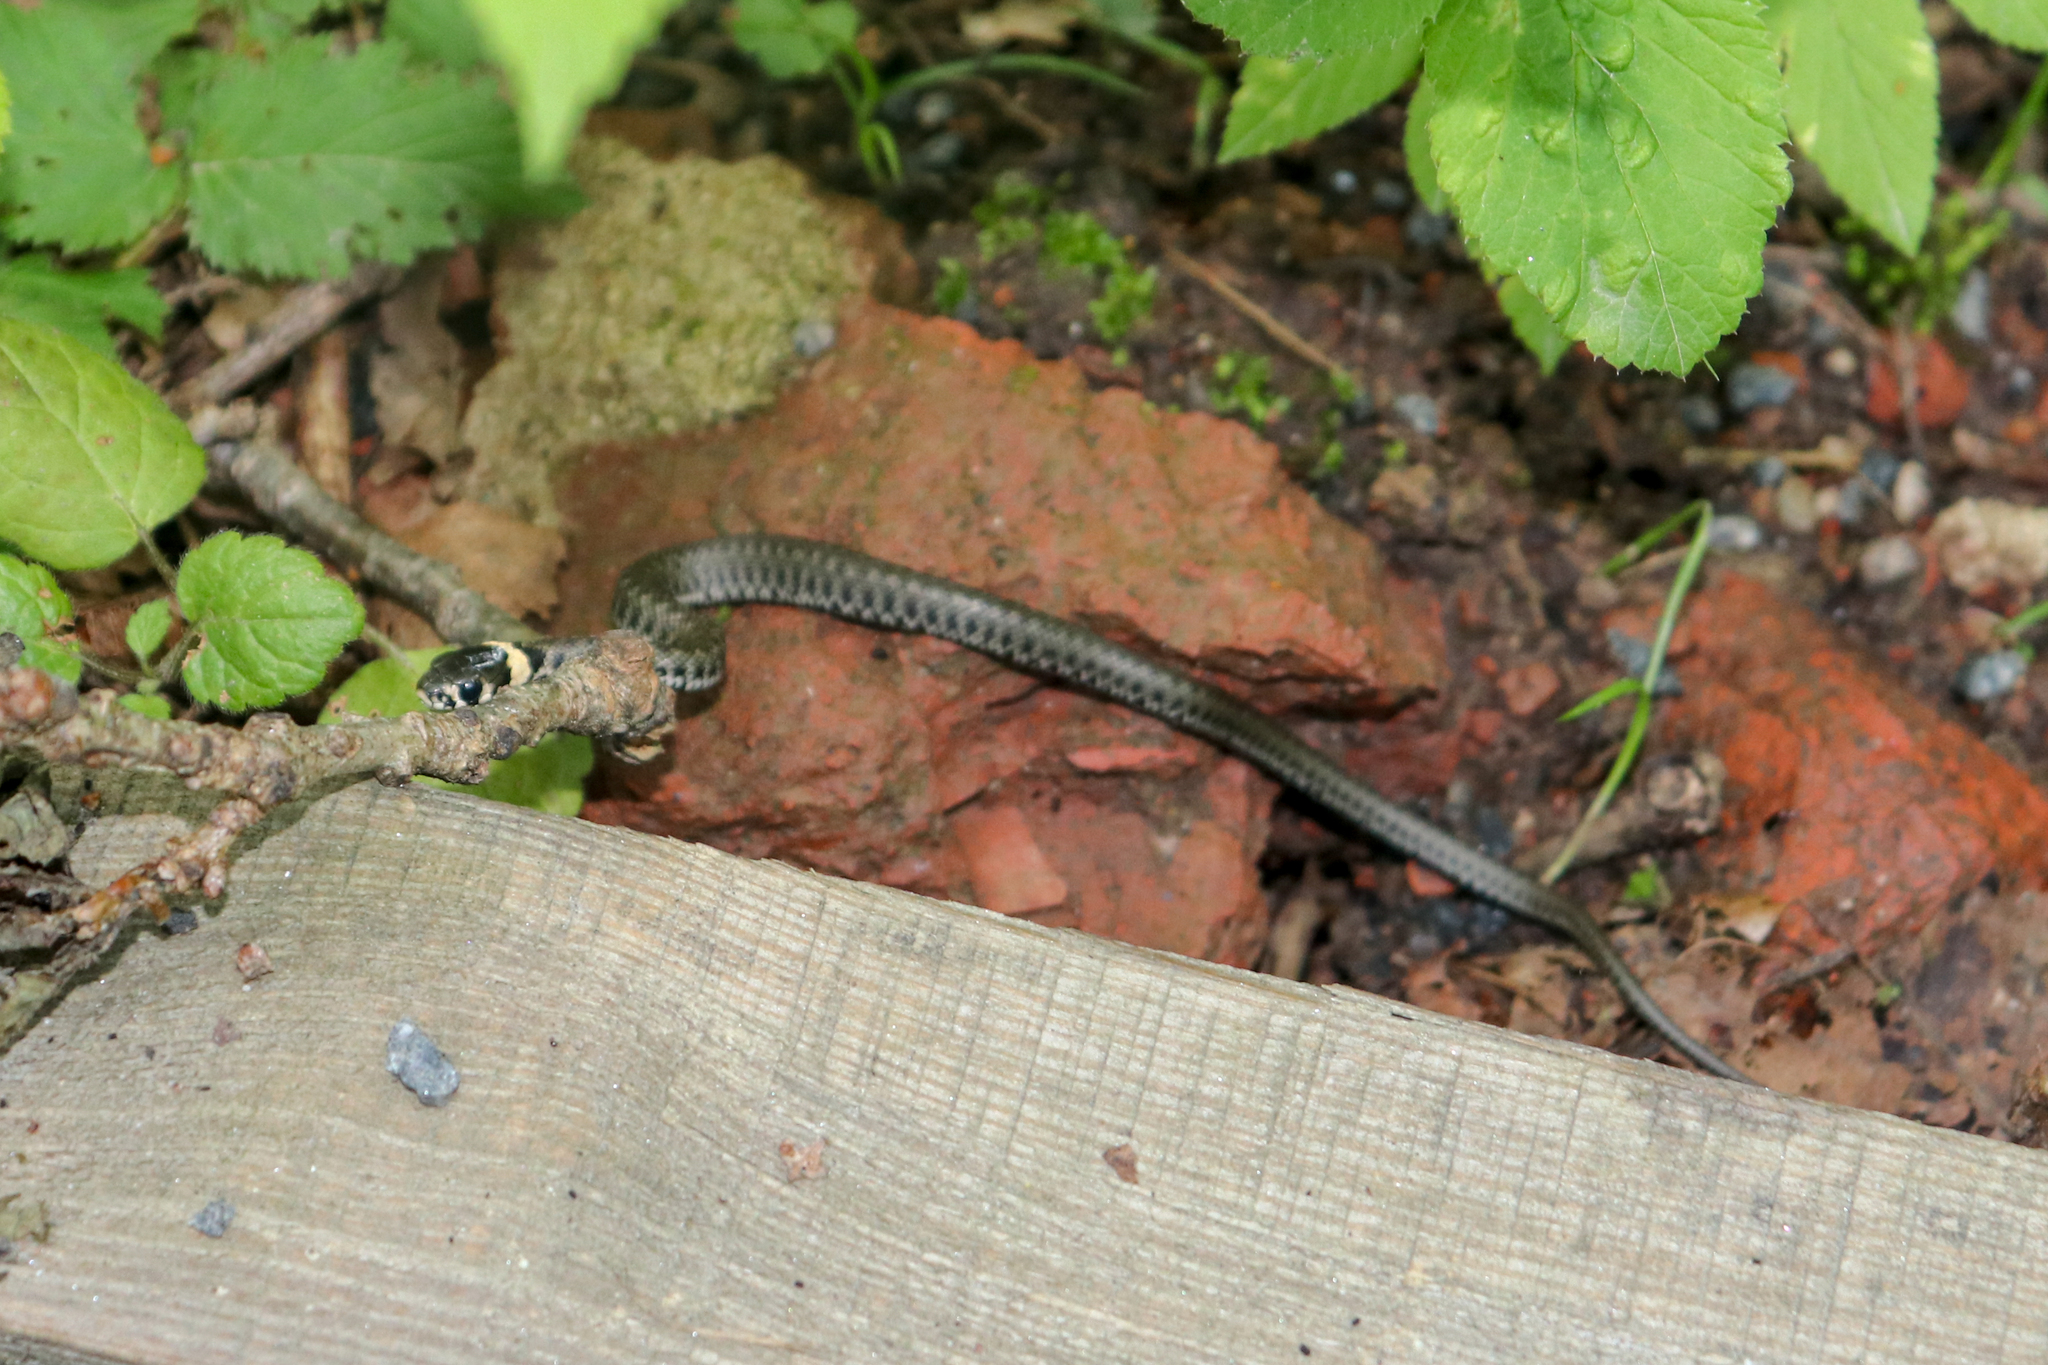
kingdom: Animalia
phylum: Chordata
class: Squamata
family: Colubridae
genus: Natrix
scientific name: Natrix natrix
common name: Grass snake
